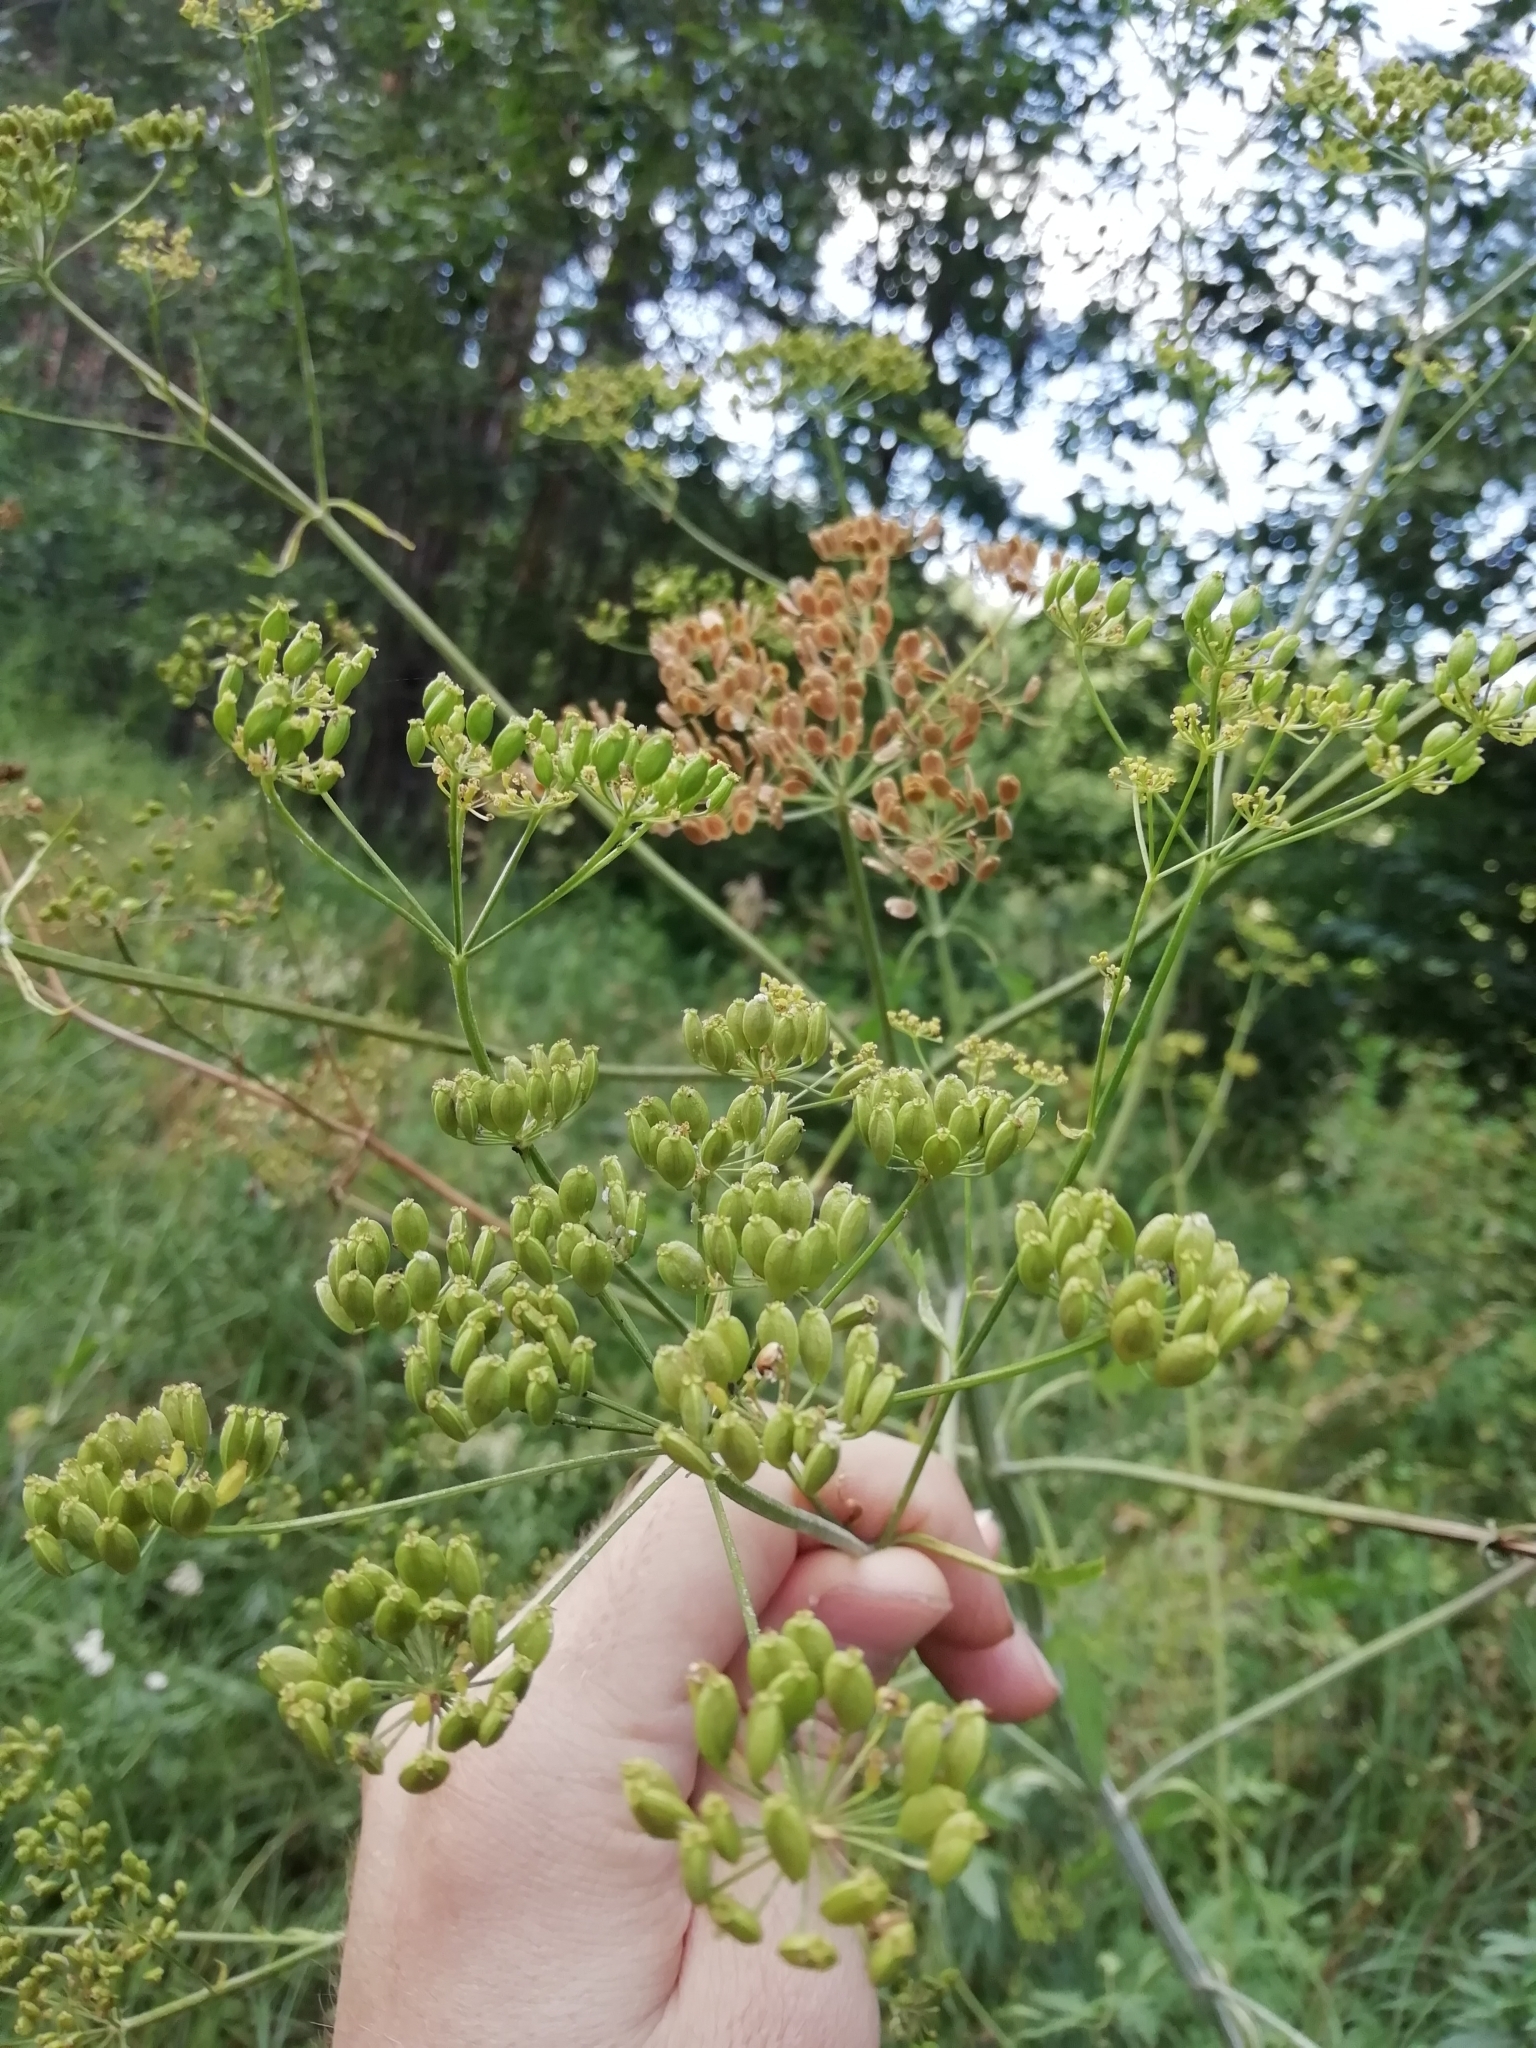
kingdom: Plantae
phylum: Tracheophyta
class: Magnoliopsida
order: Apiales
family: Apiaceae
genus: Pastinaca
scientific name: Pastinaca sativa
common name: Wild parsnip
